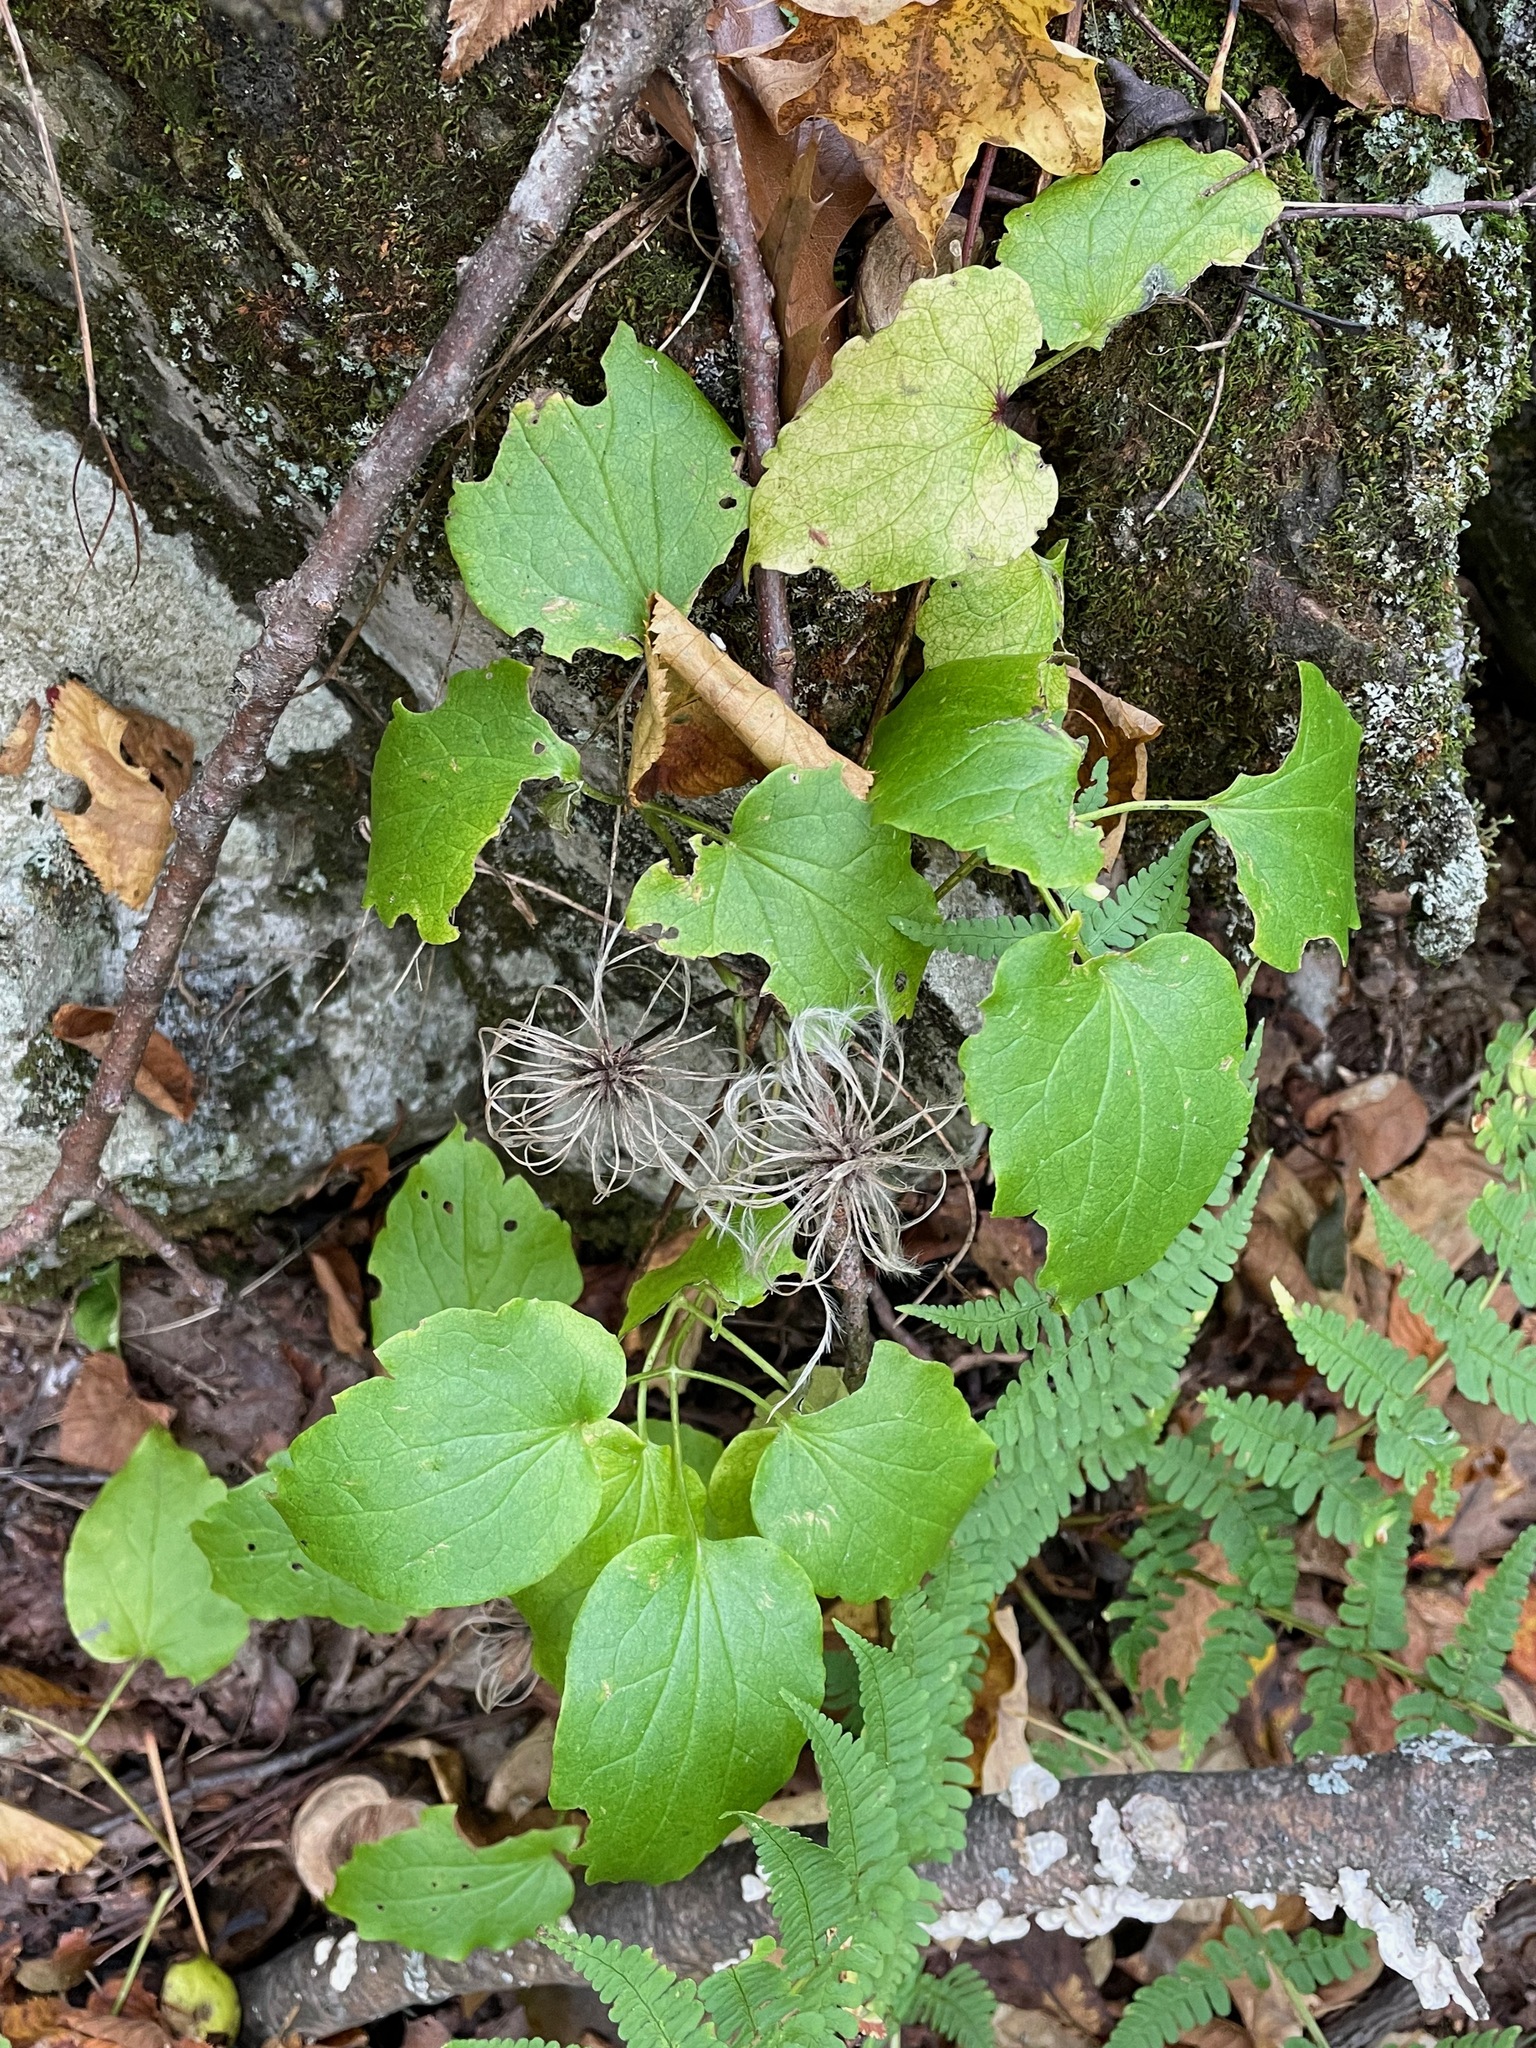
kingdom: Plantae
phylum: Tracheophyta
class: Magnoliopsida
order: Ranunculales
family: Ranunculaceae
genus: Clematis
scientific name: Clematis virginiana
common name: Virgin's-bower
